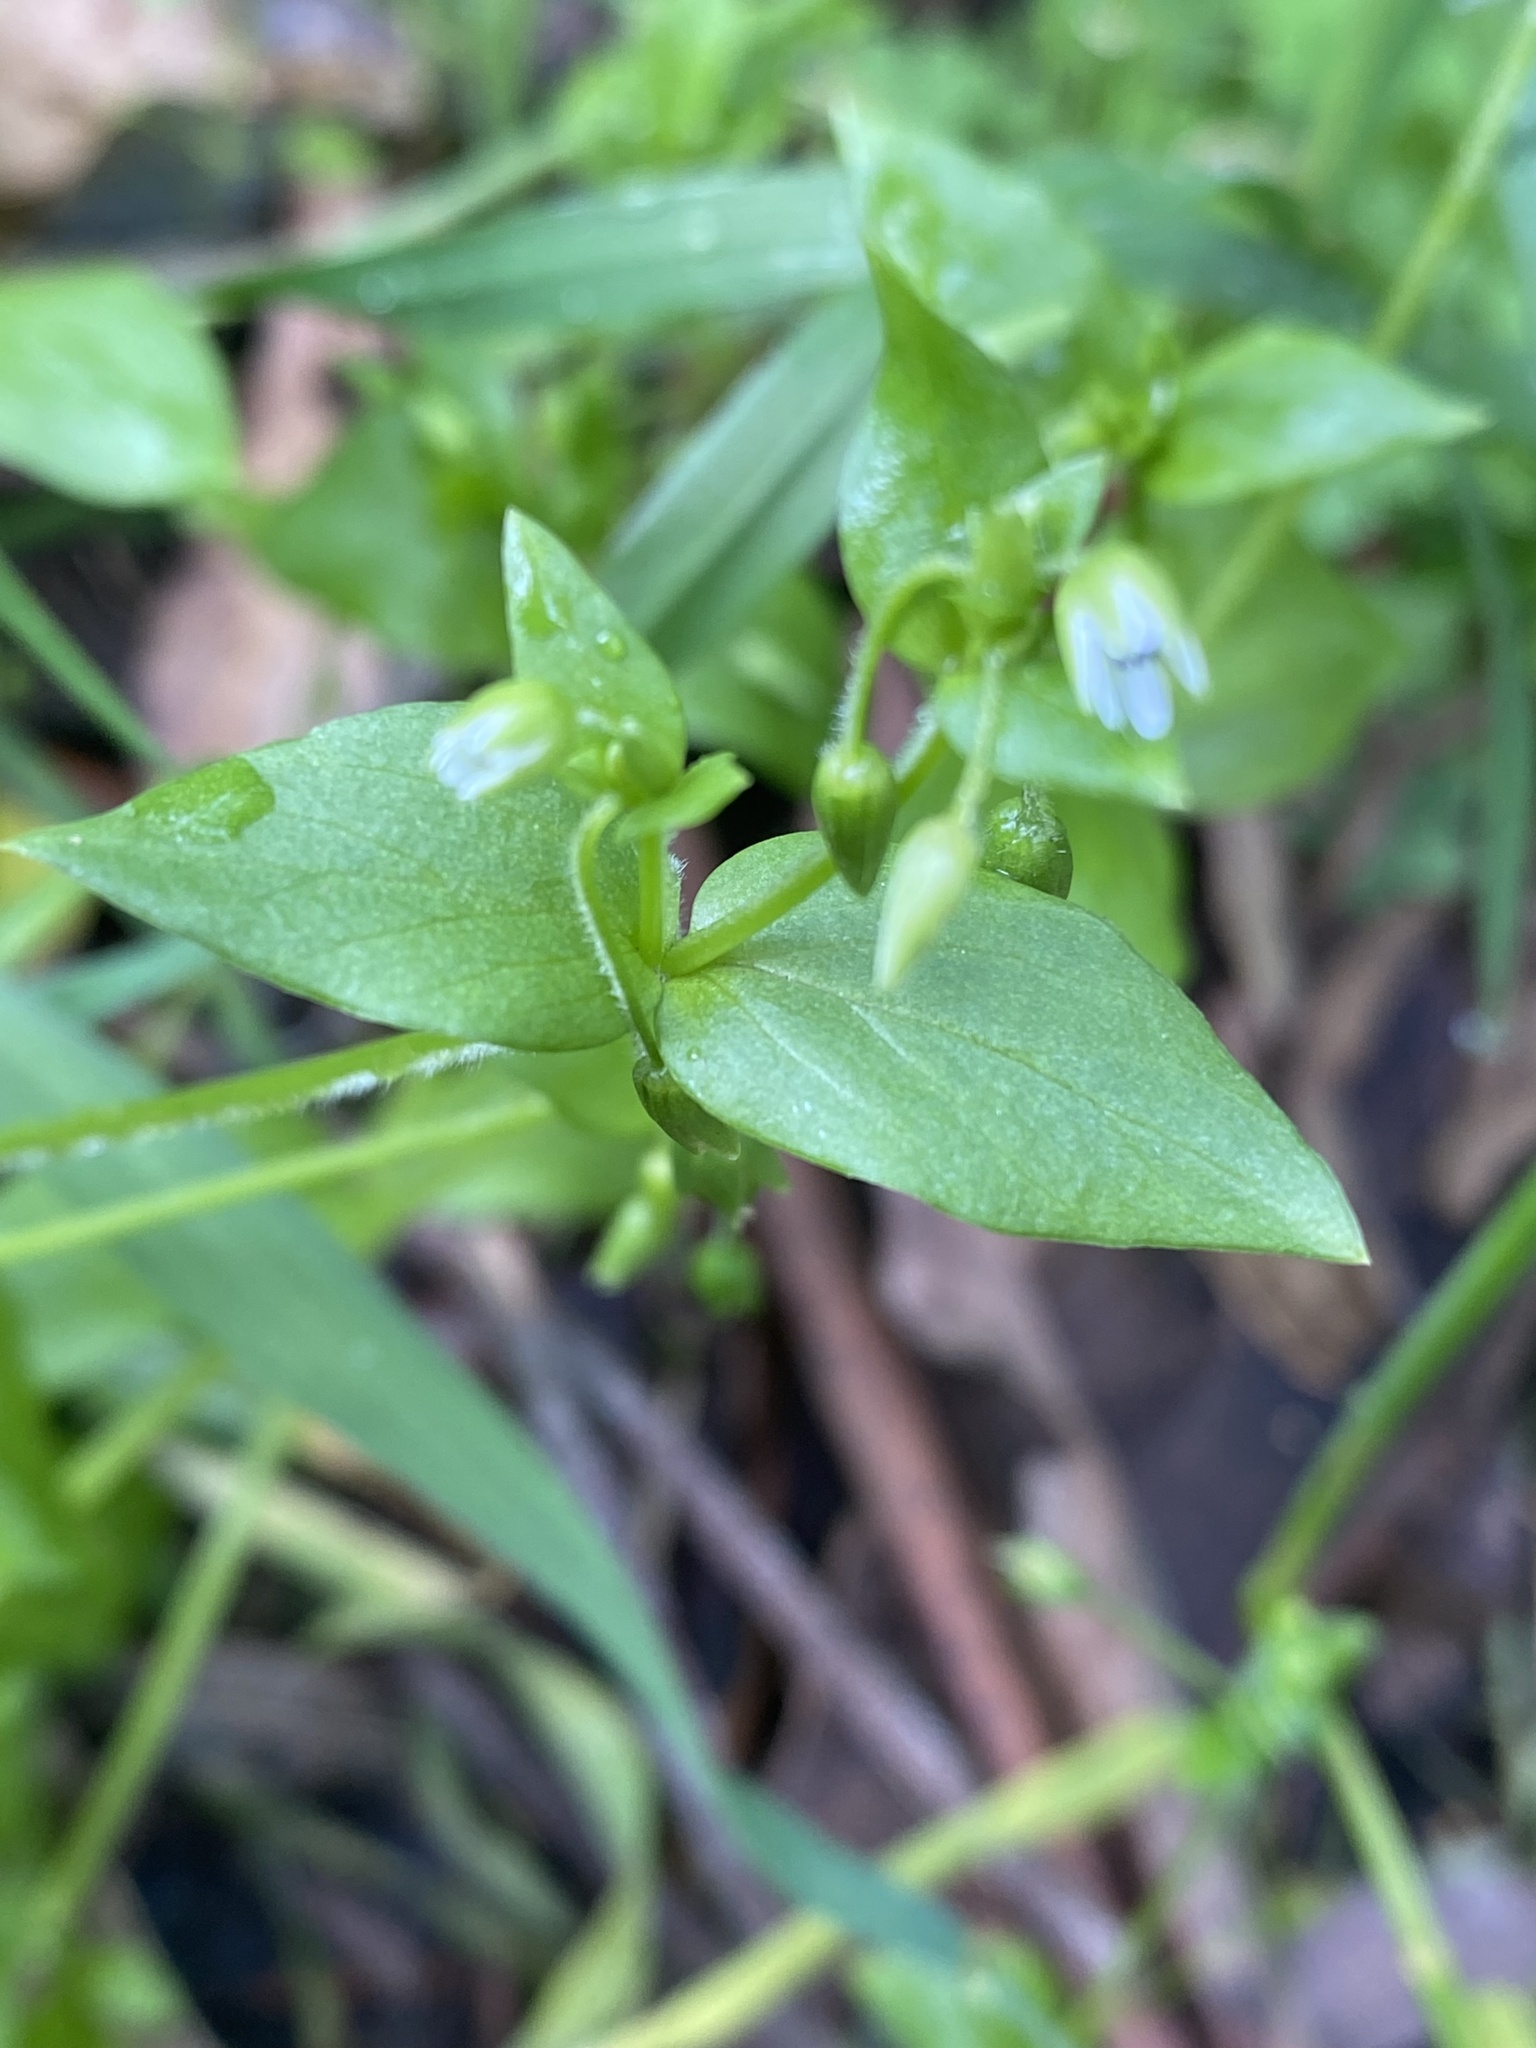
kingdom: Plantae
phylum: Tracheophyta
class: Magnoliopsida
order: Caryophyllales
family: Caryophyllaceae
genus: Stellaria
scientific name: Stellaria media
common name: Common chickweed
